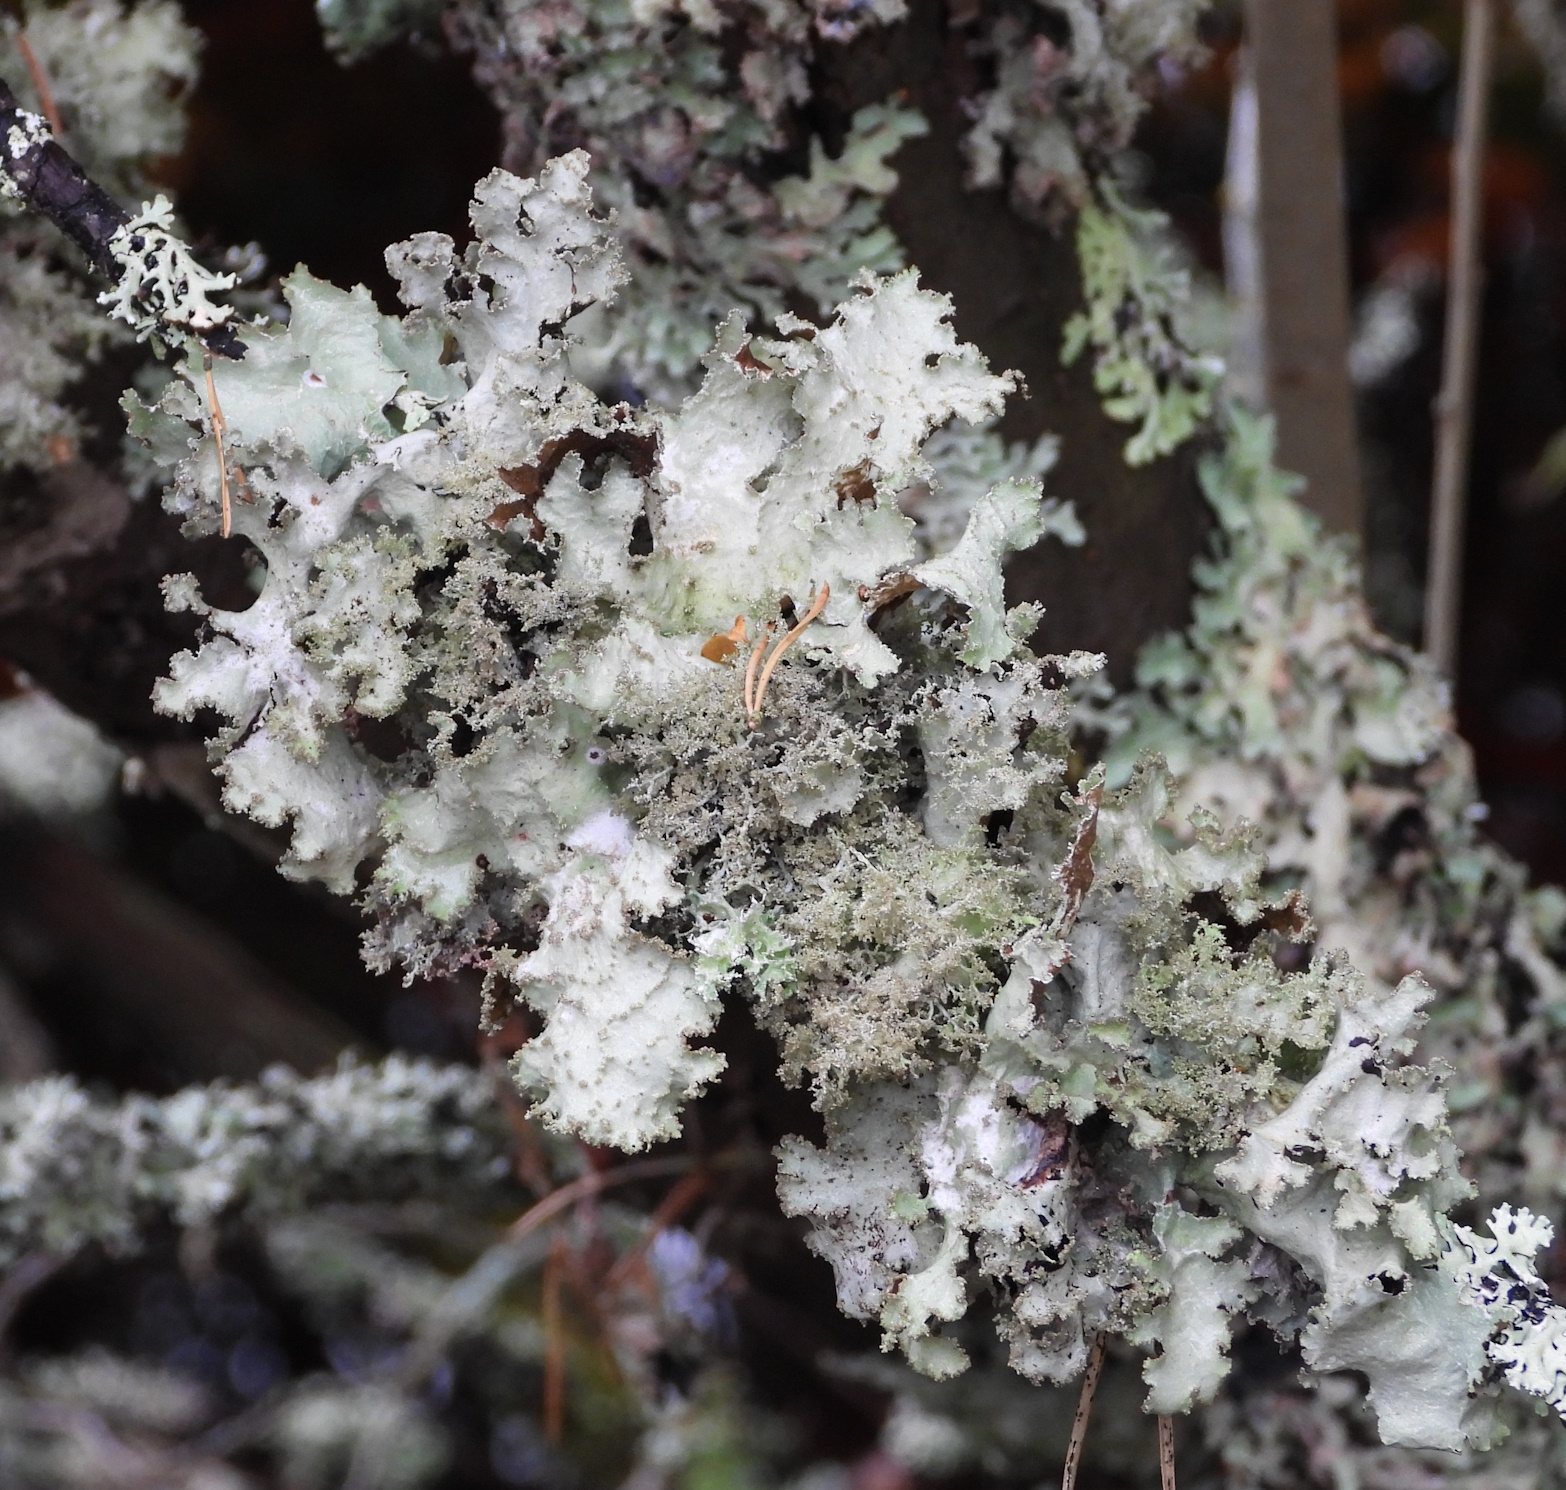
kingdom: Fungi
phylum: Ascomycota
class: Lecanoromycetes
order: Lecanorales
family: Parmeliaceae
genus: Platismatia
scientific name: Platismatia glauca
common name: Varied rag lichen
